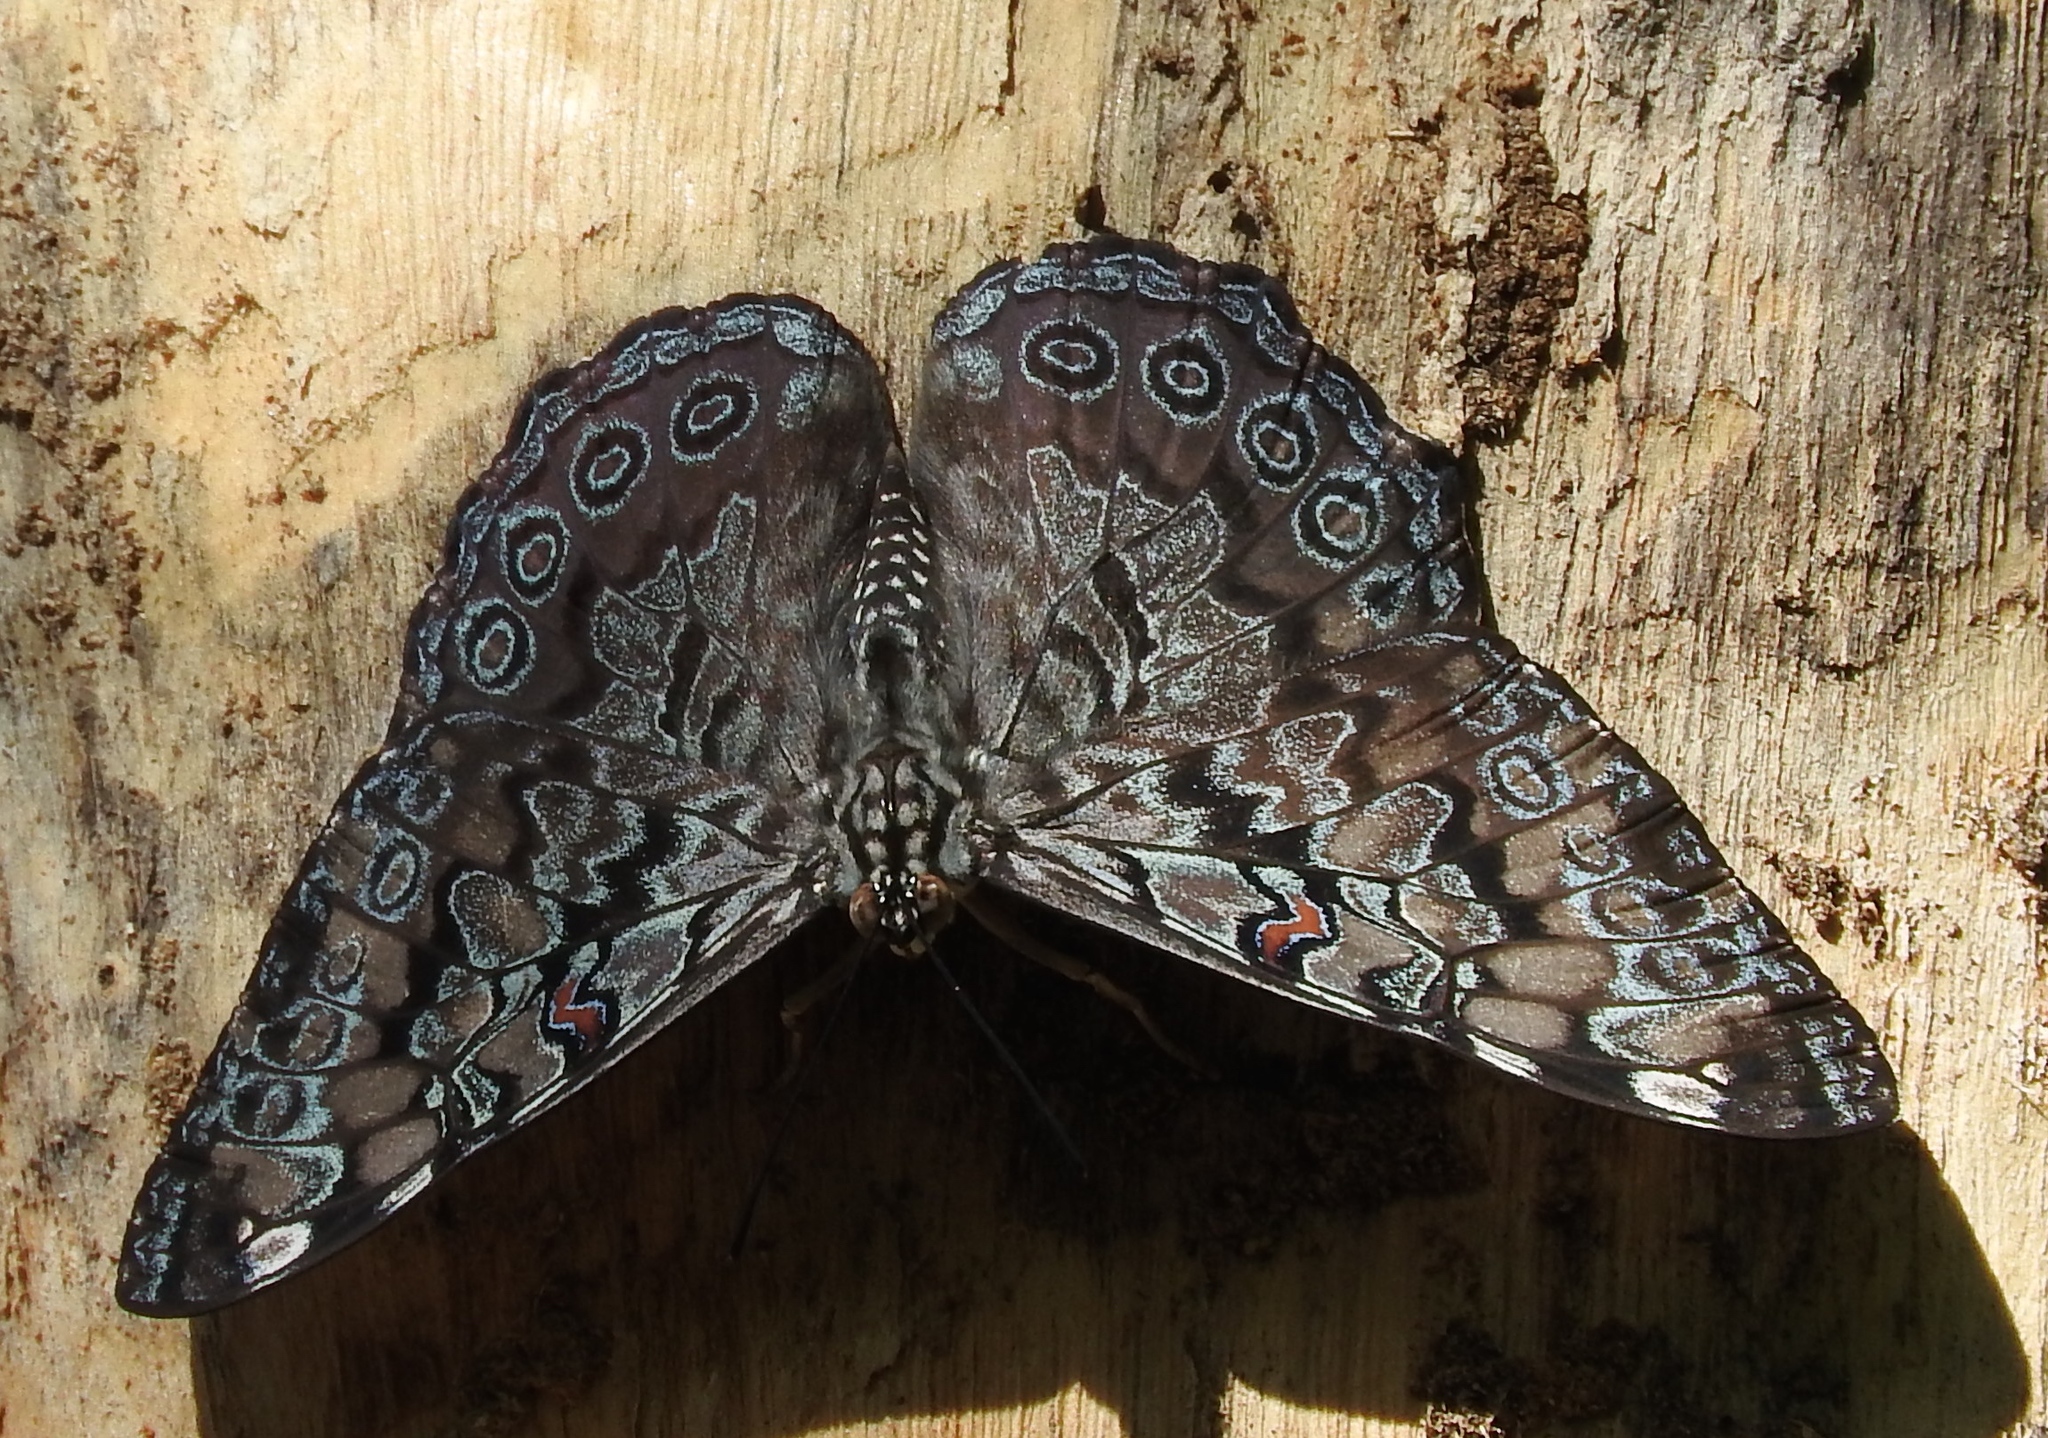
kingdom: Animalia
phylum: Arthropoda
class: Insecta
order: Lepidoptera
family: Nymphalidae
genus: Hamadryas
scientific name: Hamadryas guatemalena
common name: Guatemalan cracker
